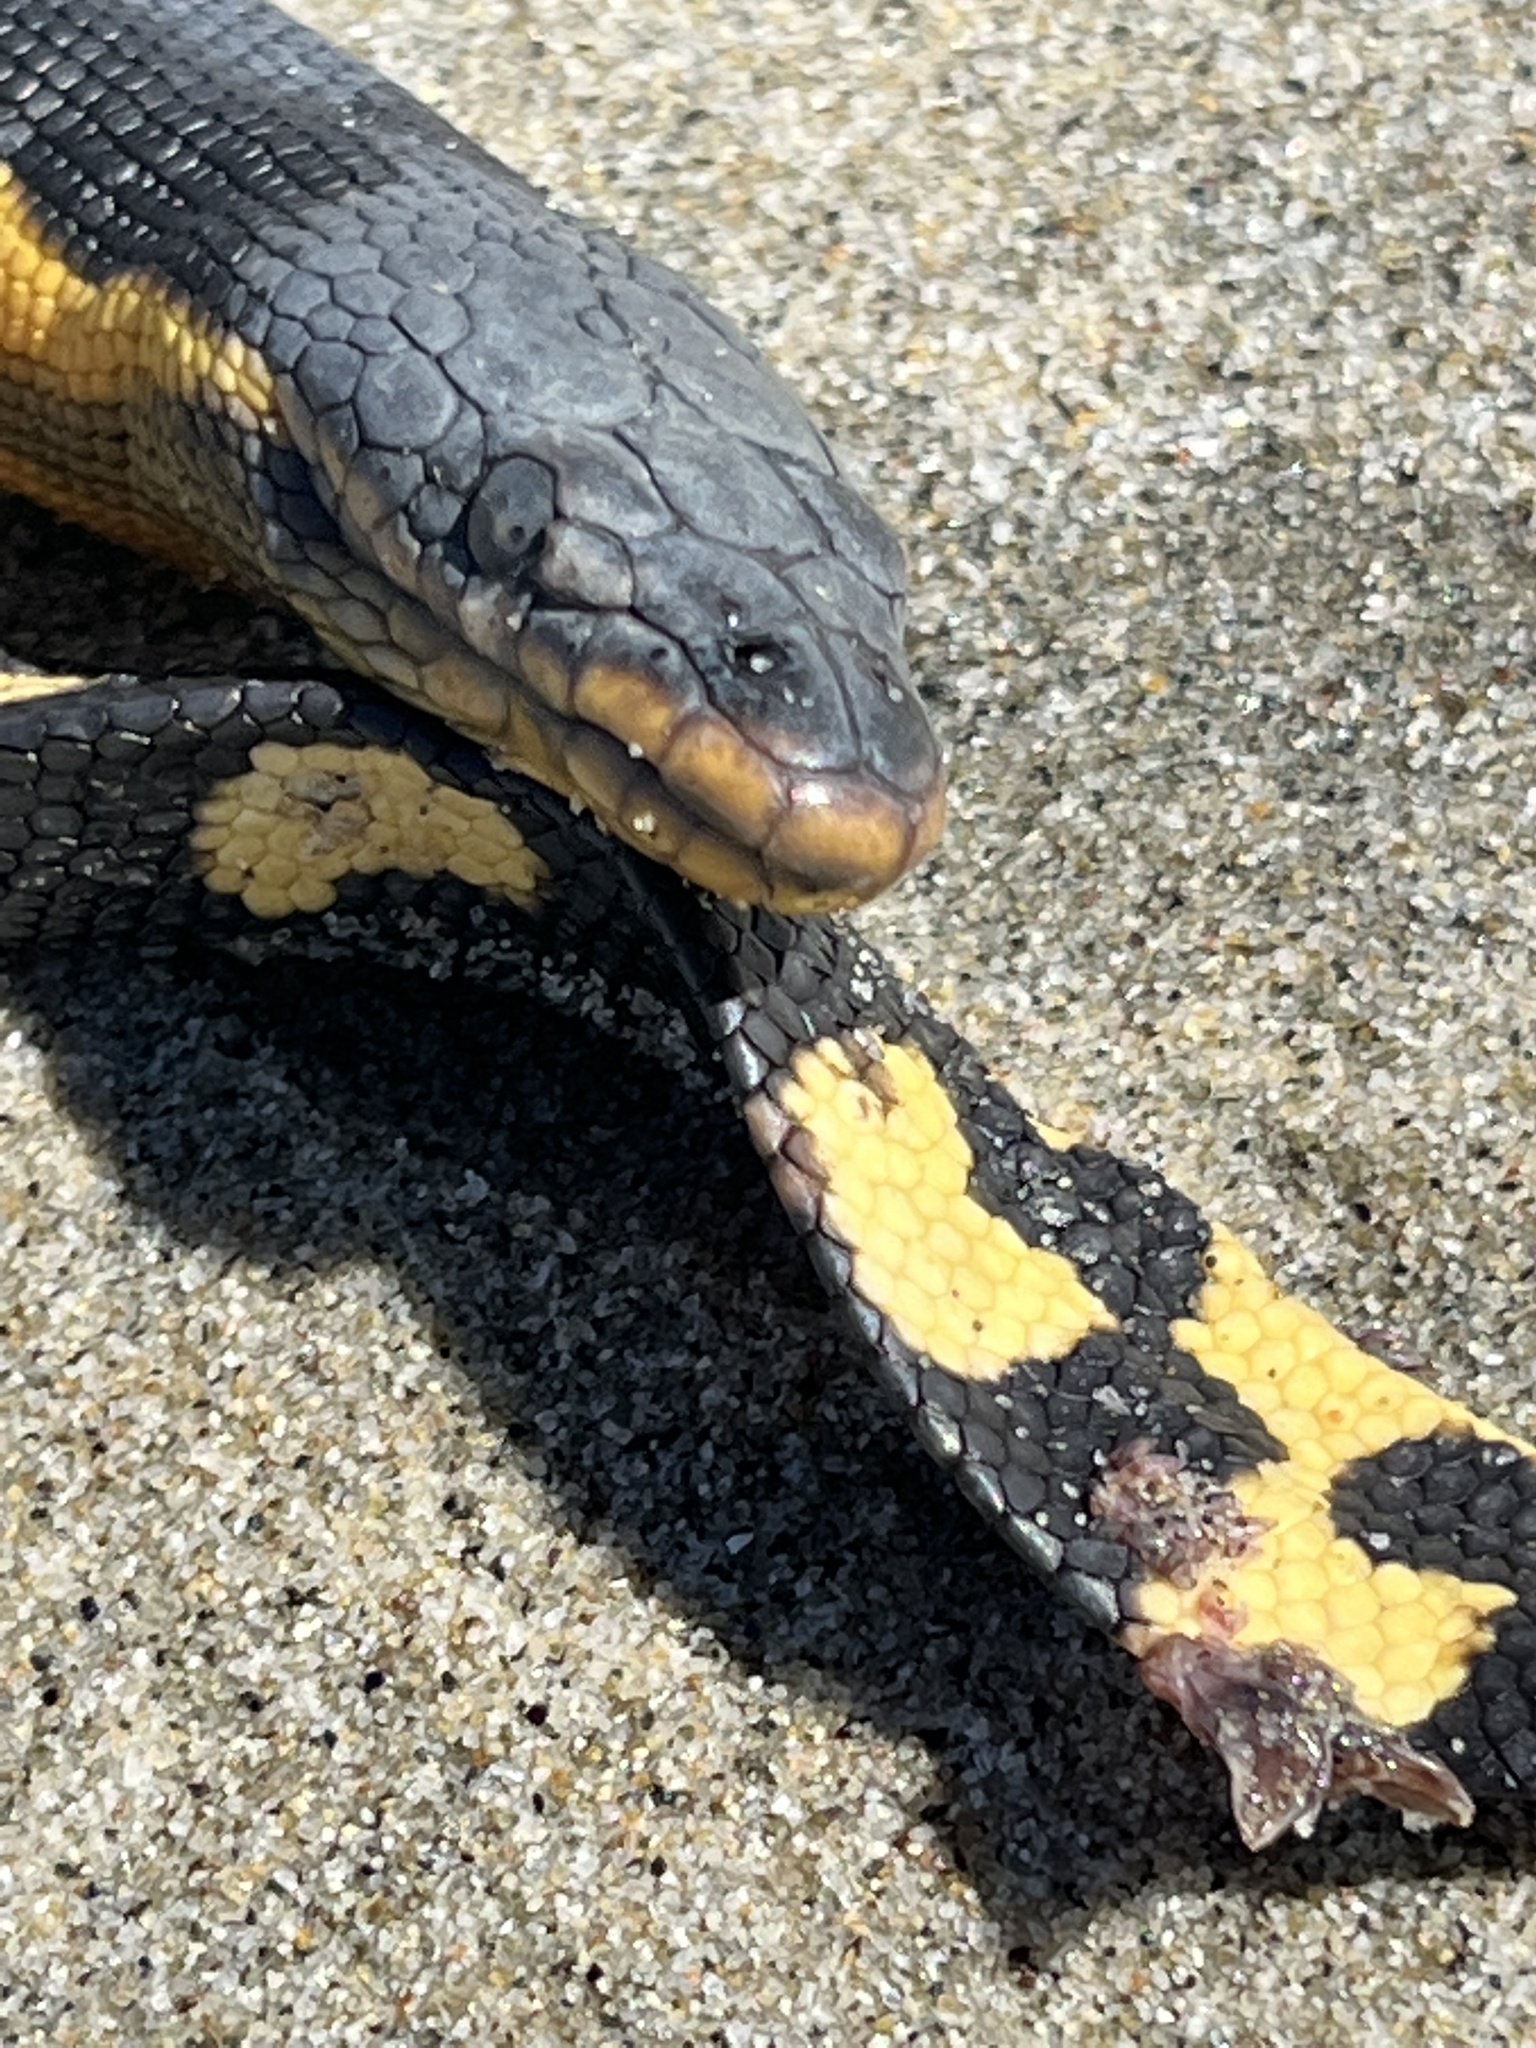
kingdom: Animalia
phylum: Chordata
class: Squamata
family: Elapidae
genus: Hydrophis
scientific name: Hydrophis platurus
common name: Pelagic sea snake
